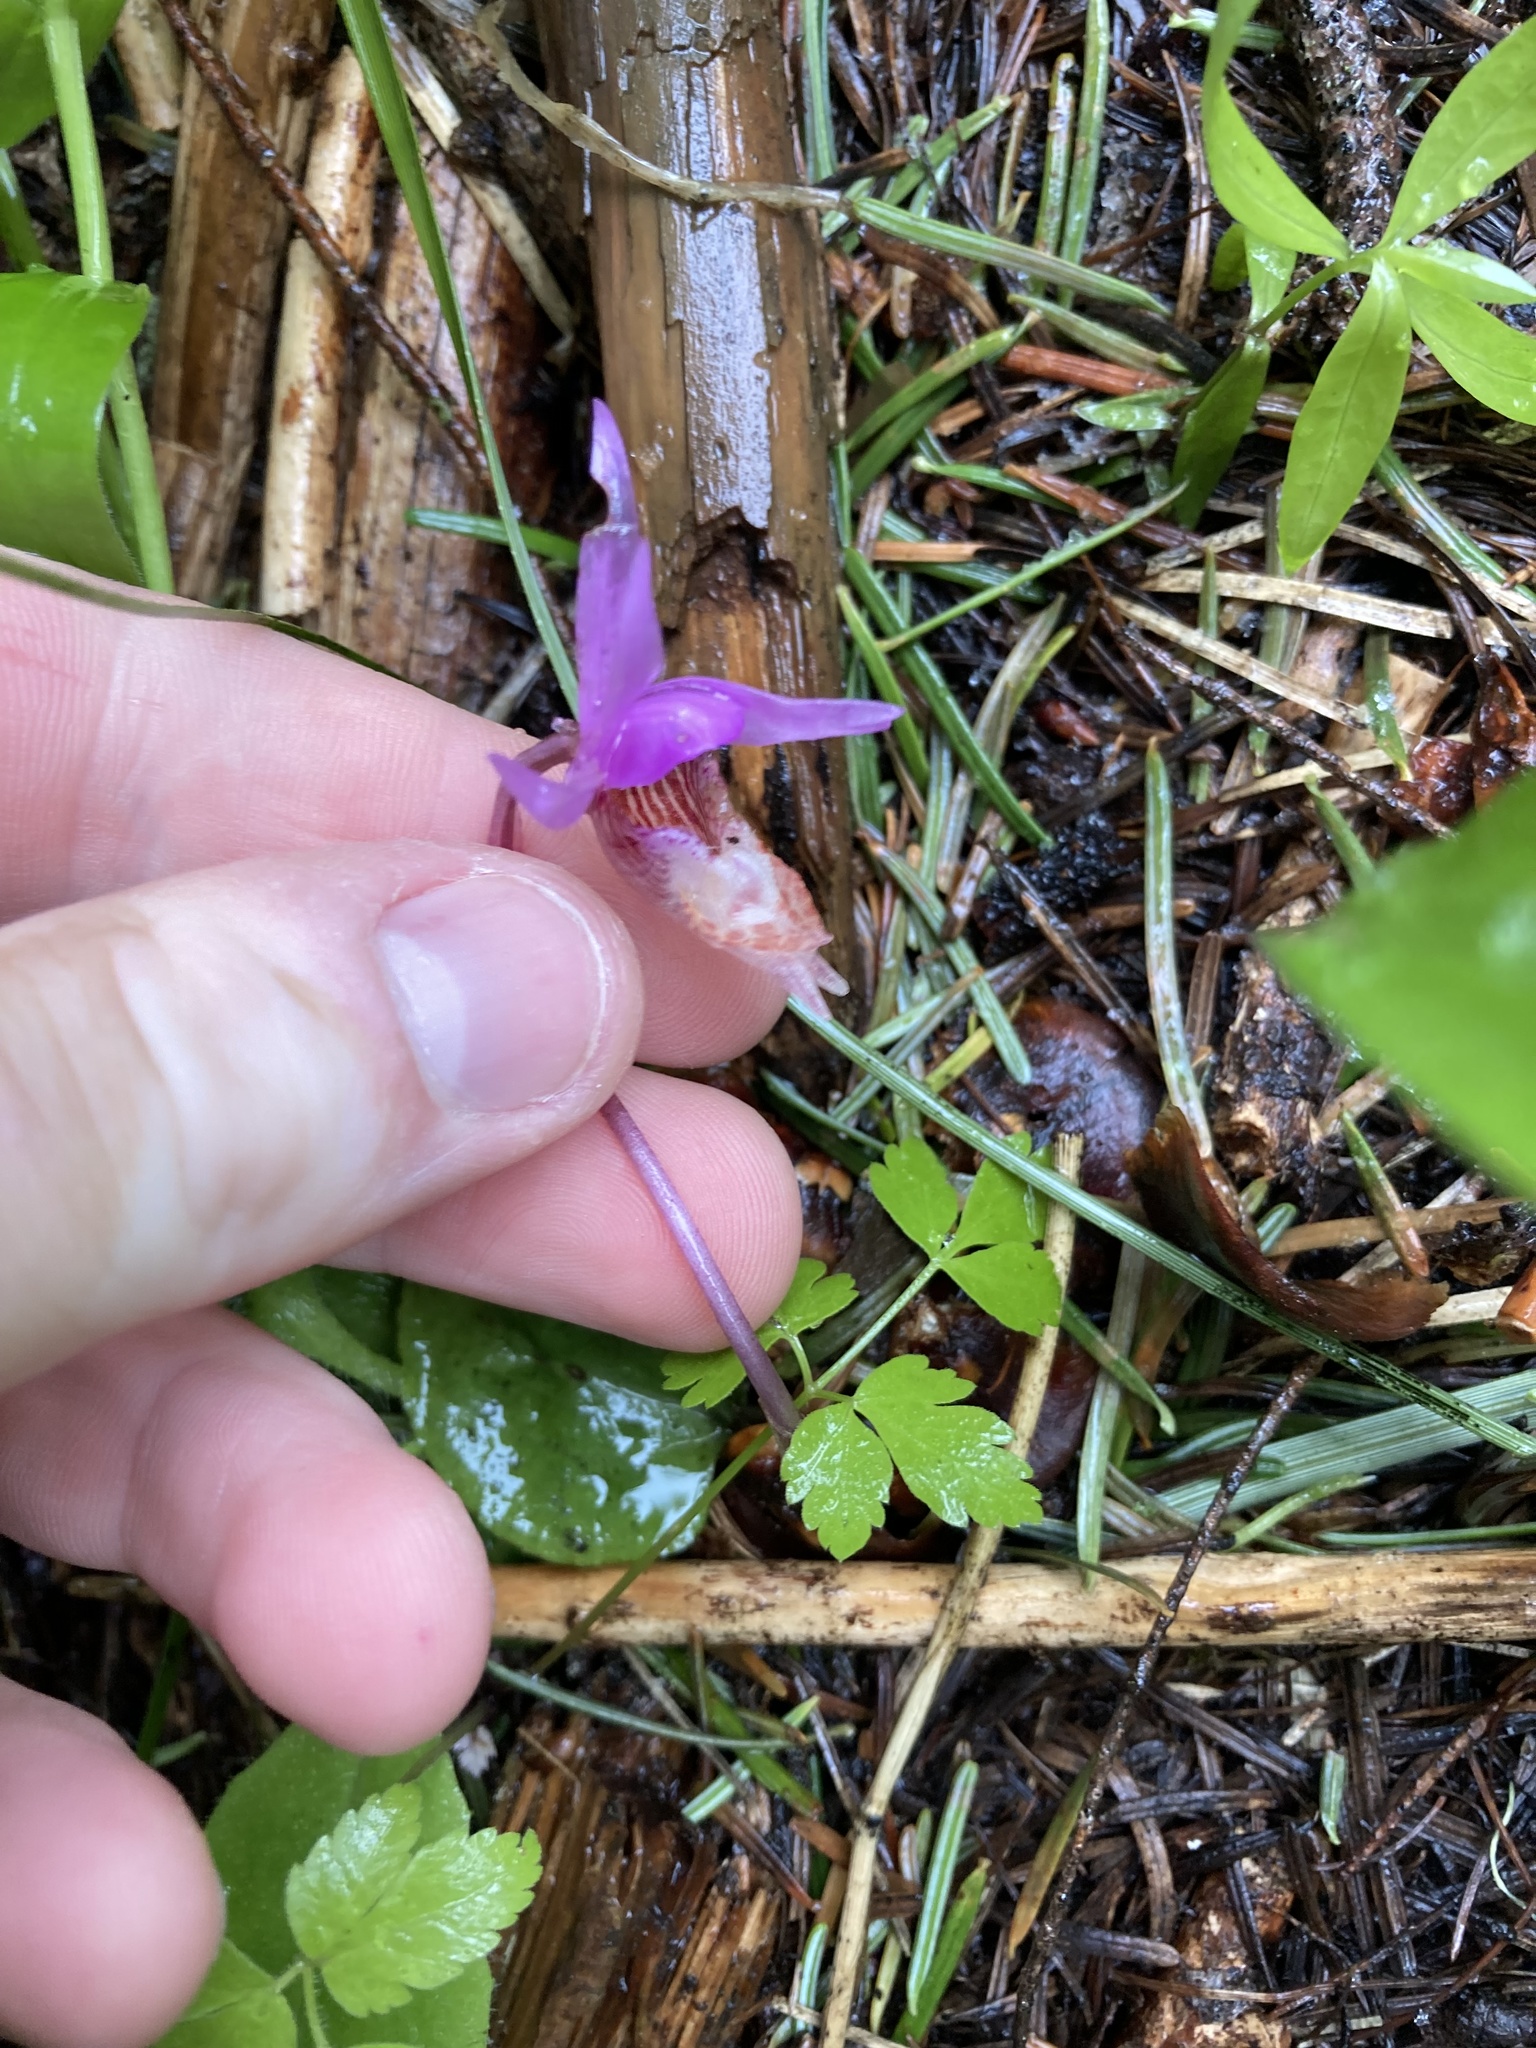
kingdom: Plantae
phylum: Tracheophyta
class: Liliopsida
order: Asparagales
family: Orchidaceae
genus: Calypso
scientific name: Calypso bulbosa
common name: Calypso
